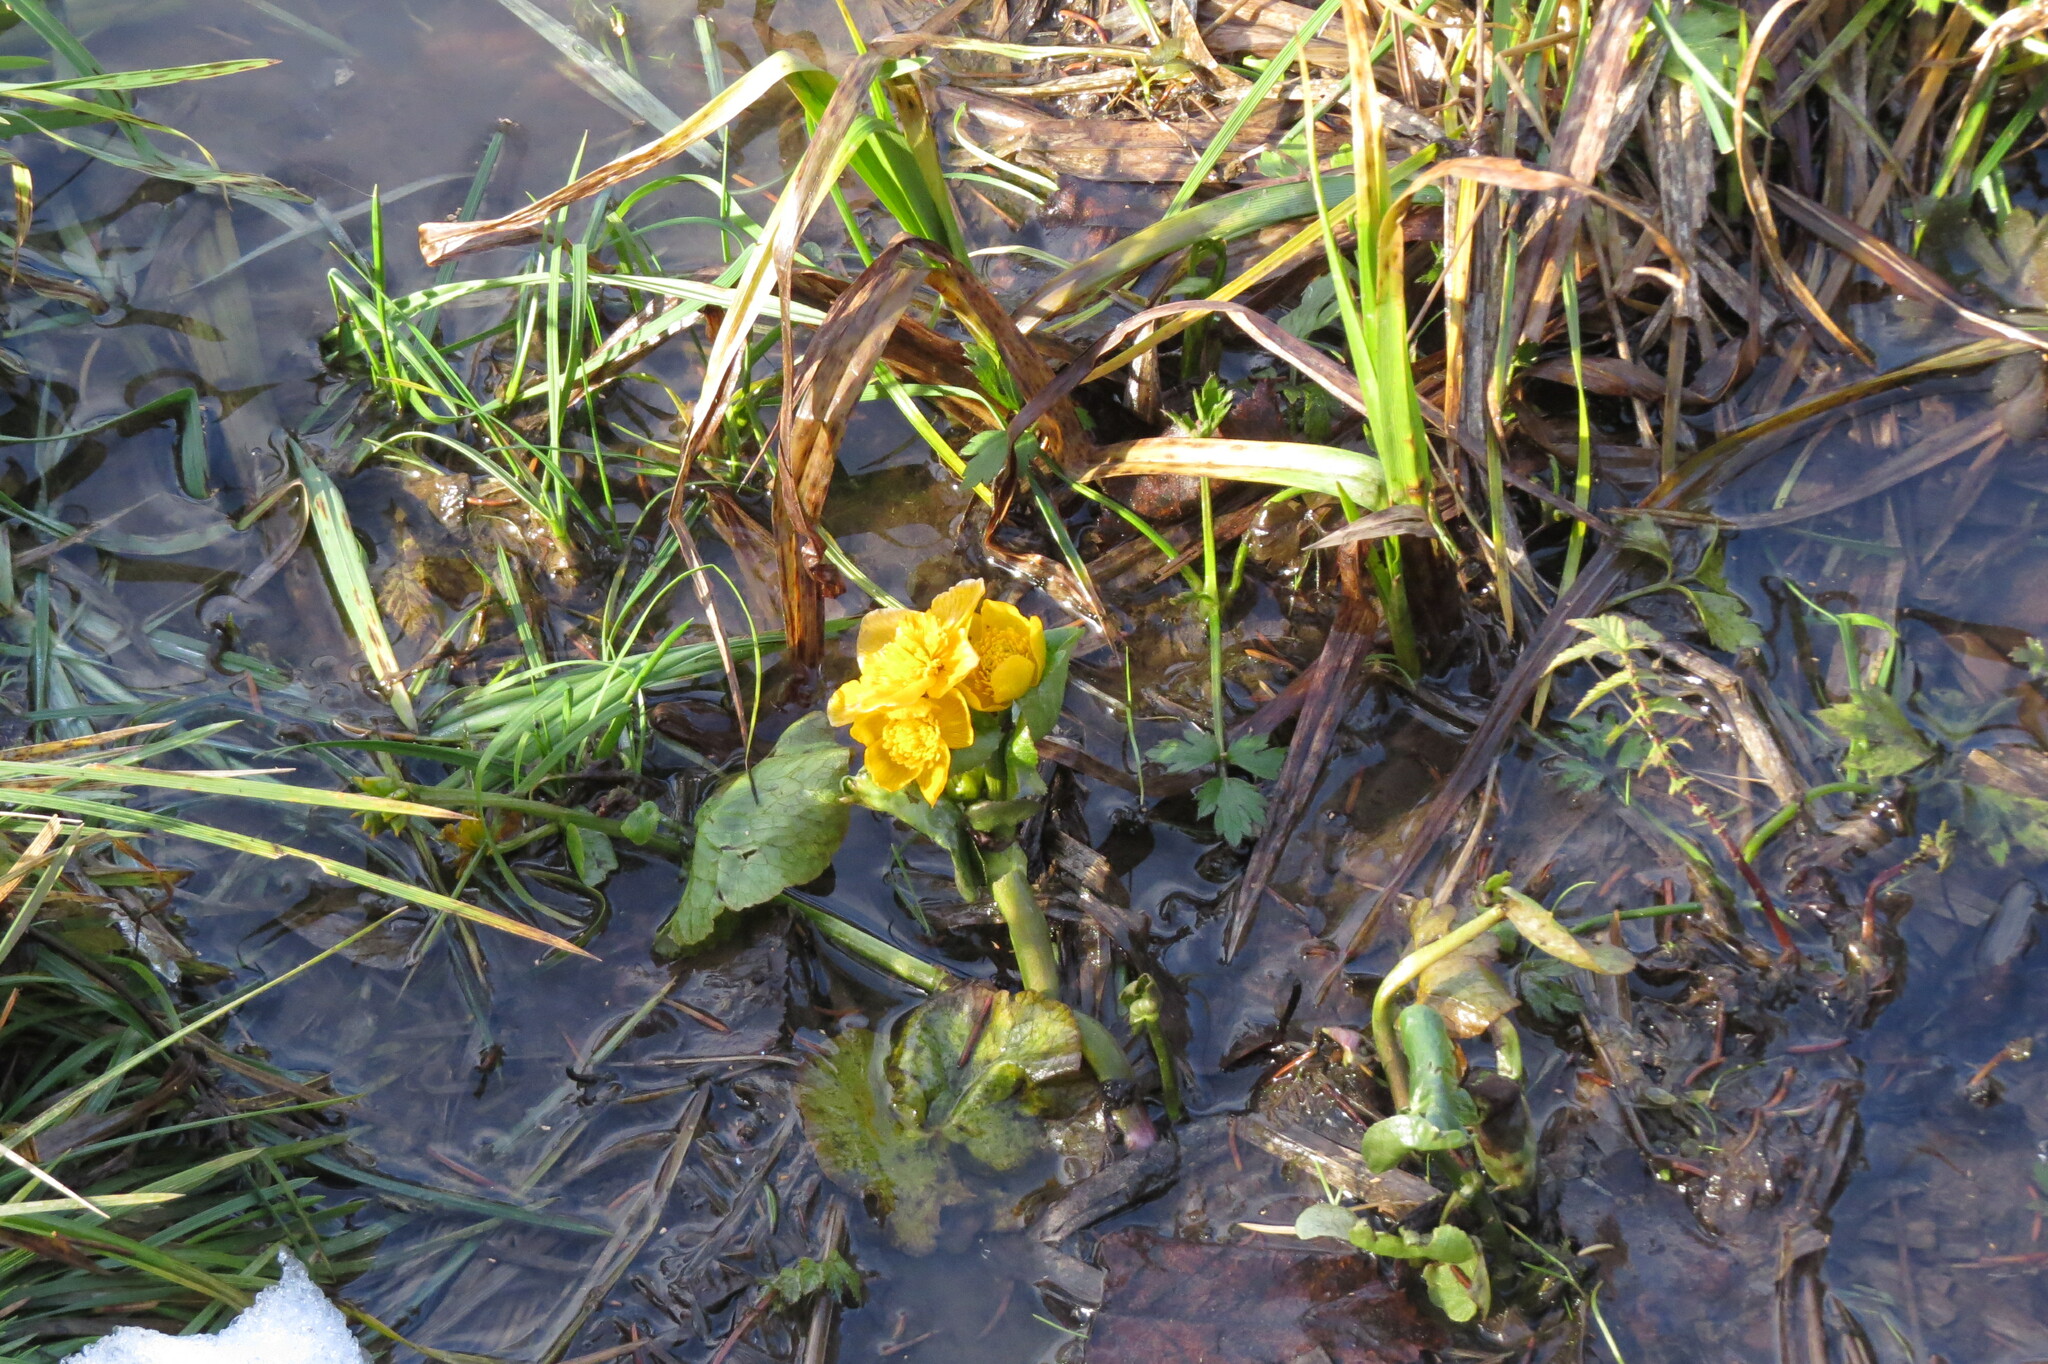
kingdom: Plantae
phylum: Tracheophyta
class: Magnoliopsida
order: Ranunculales
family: Ranunculaceae
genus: Caltha
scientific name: Caltha palustris
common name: Marsh marigold
